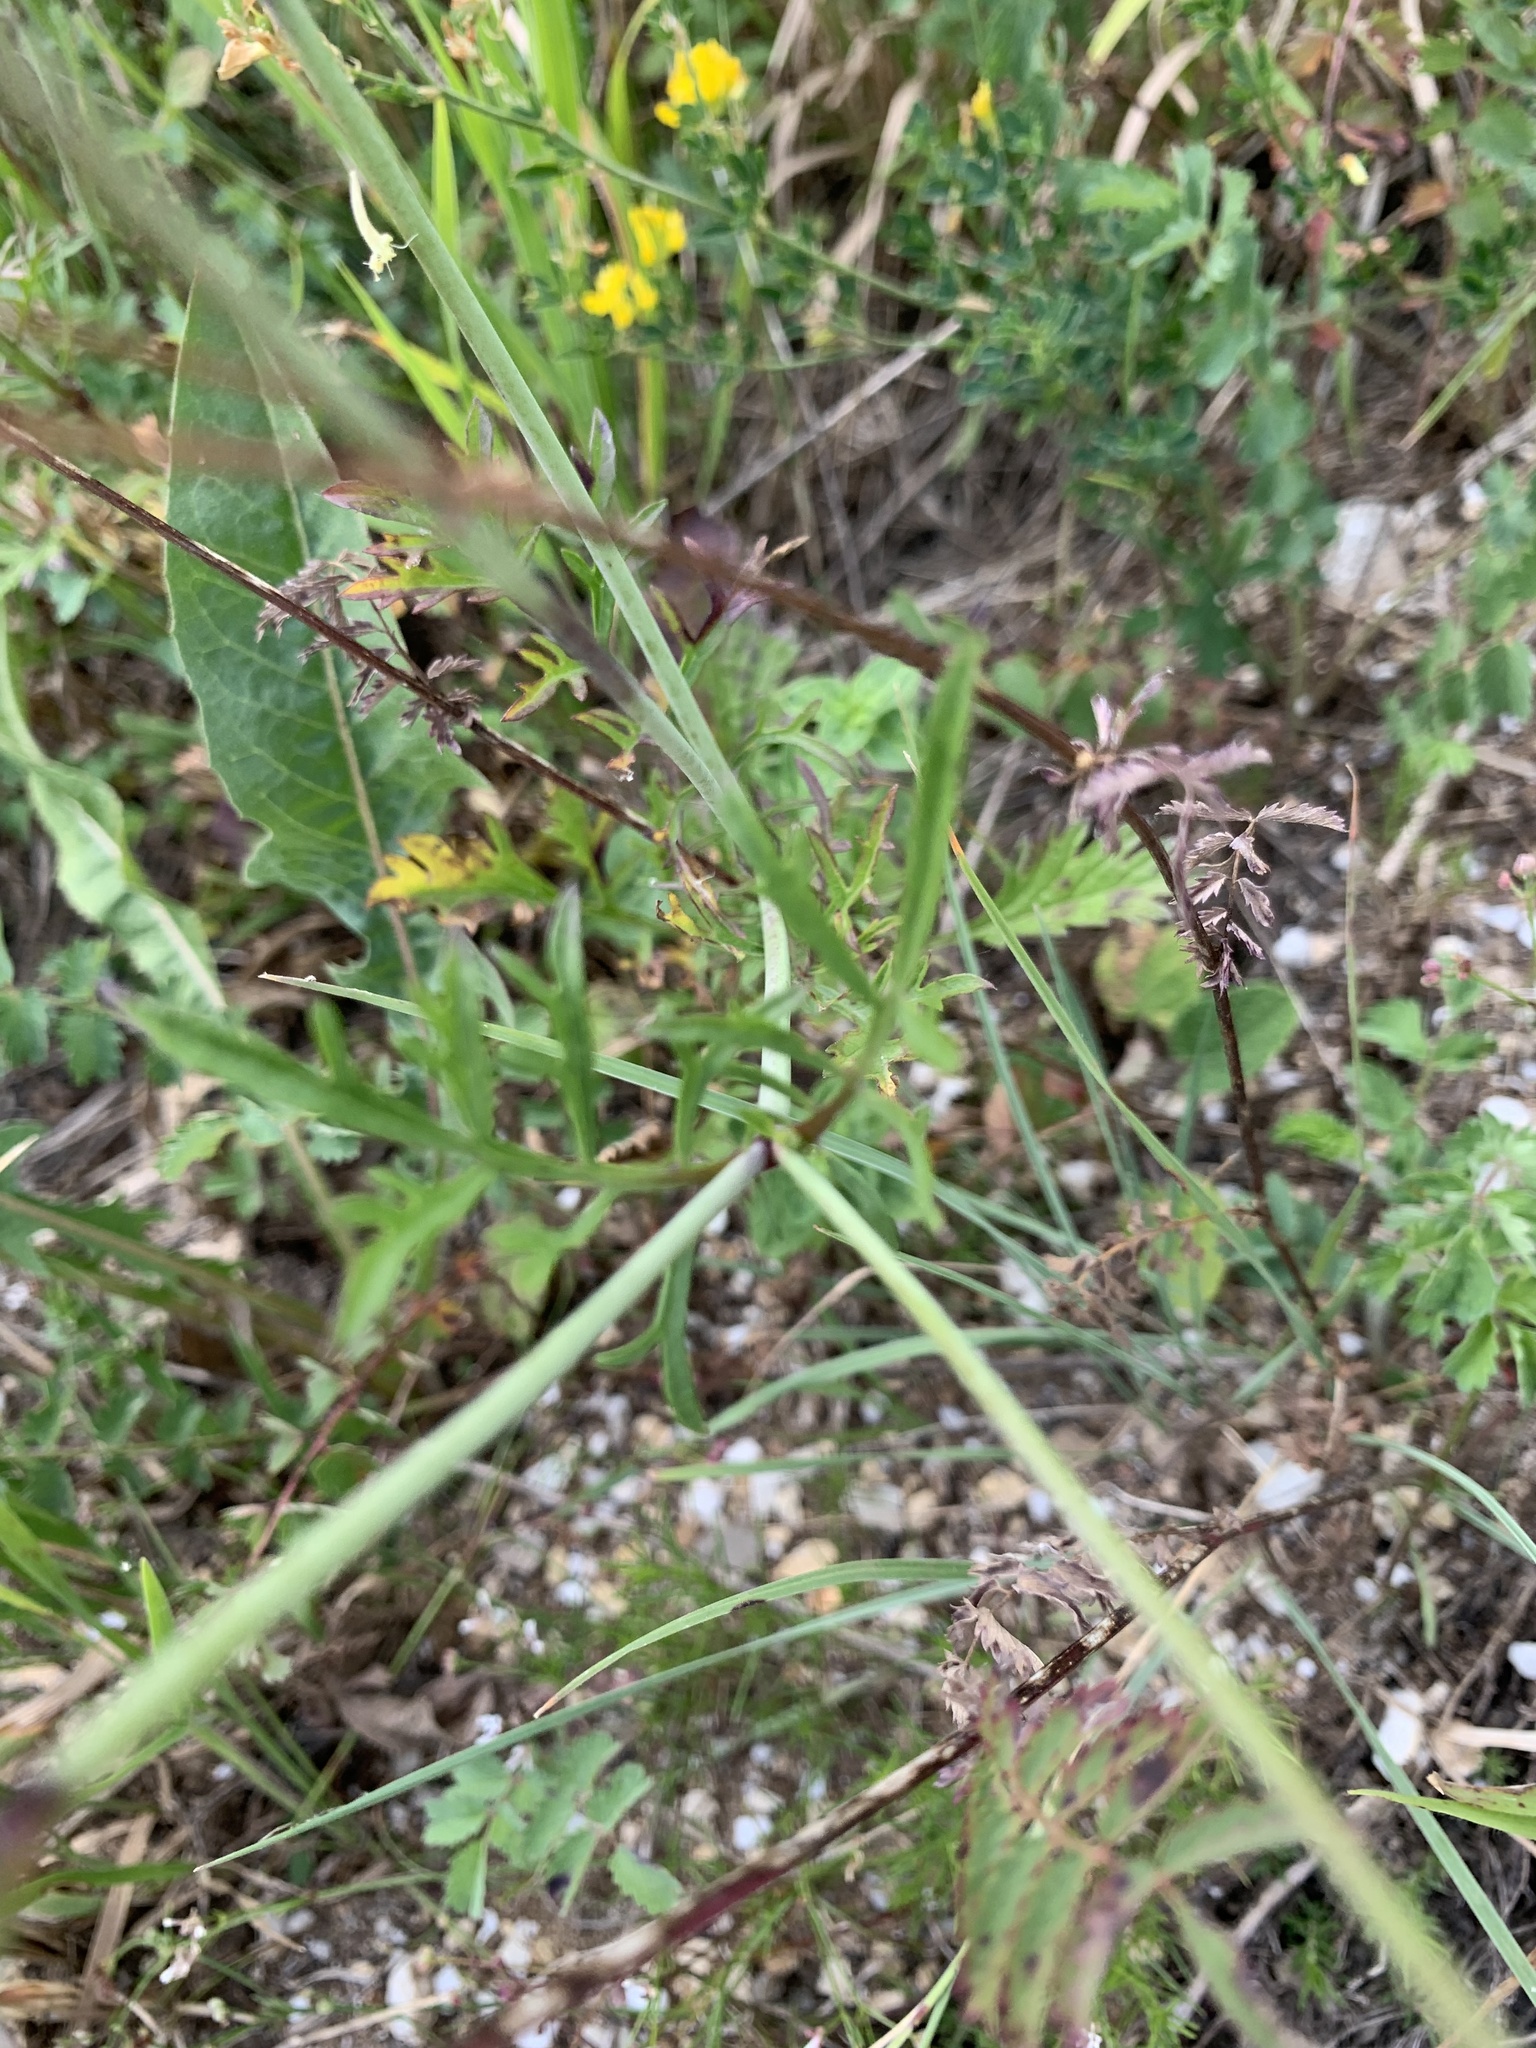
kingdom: Plantae
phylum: Tracheophyta
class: Magnoliopsida
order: Dipsacales
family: Caprifoliaceae
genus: Scabiosa
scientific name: Scabiosa ochroleuca
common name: Cream pincushions
